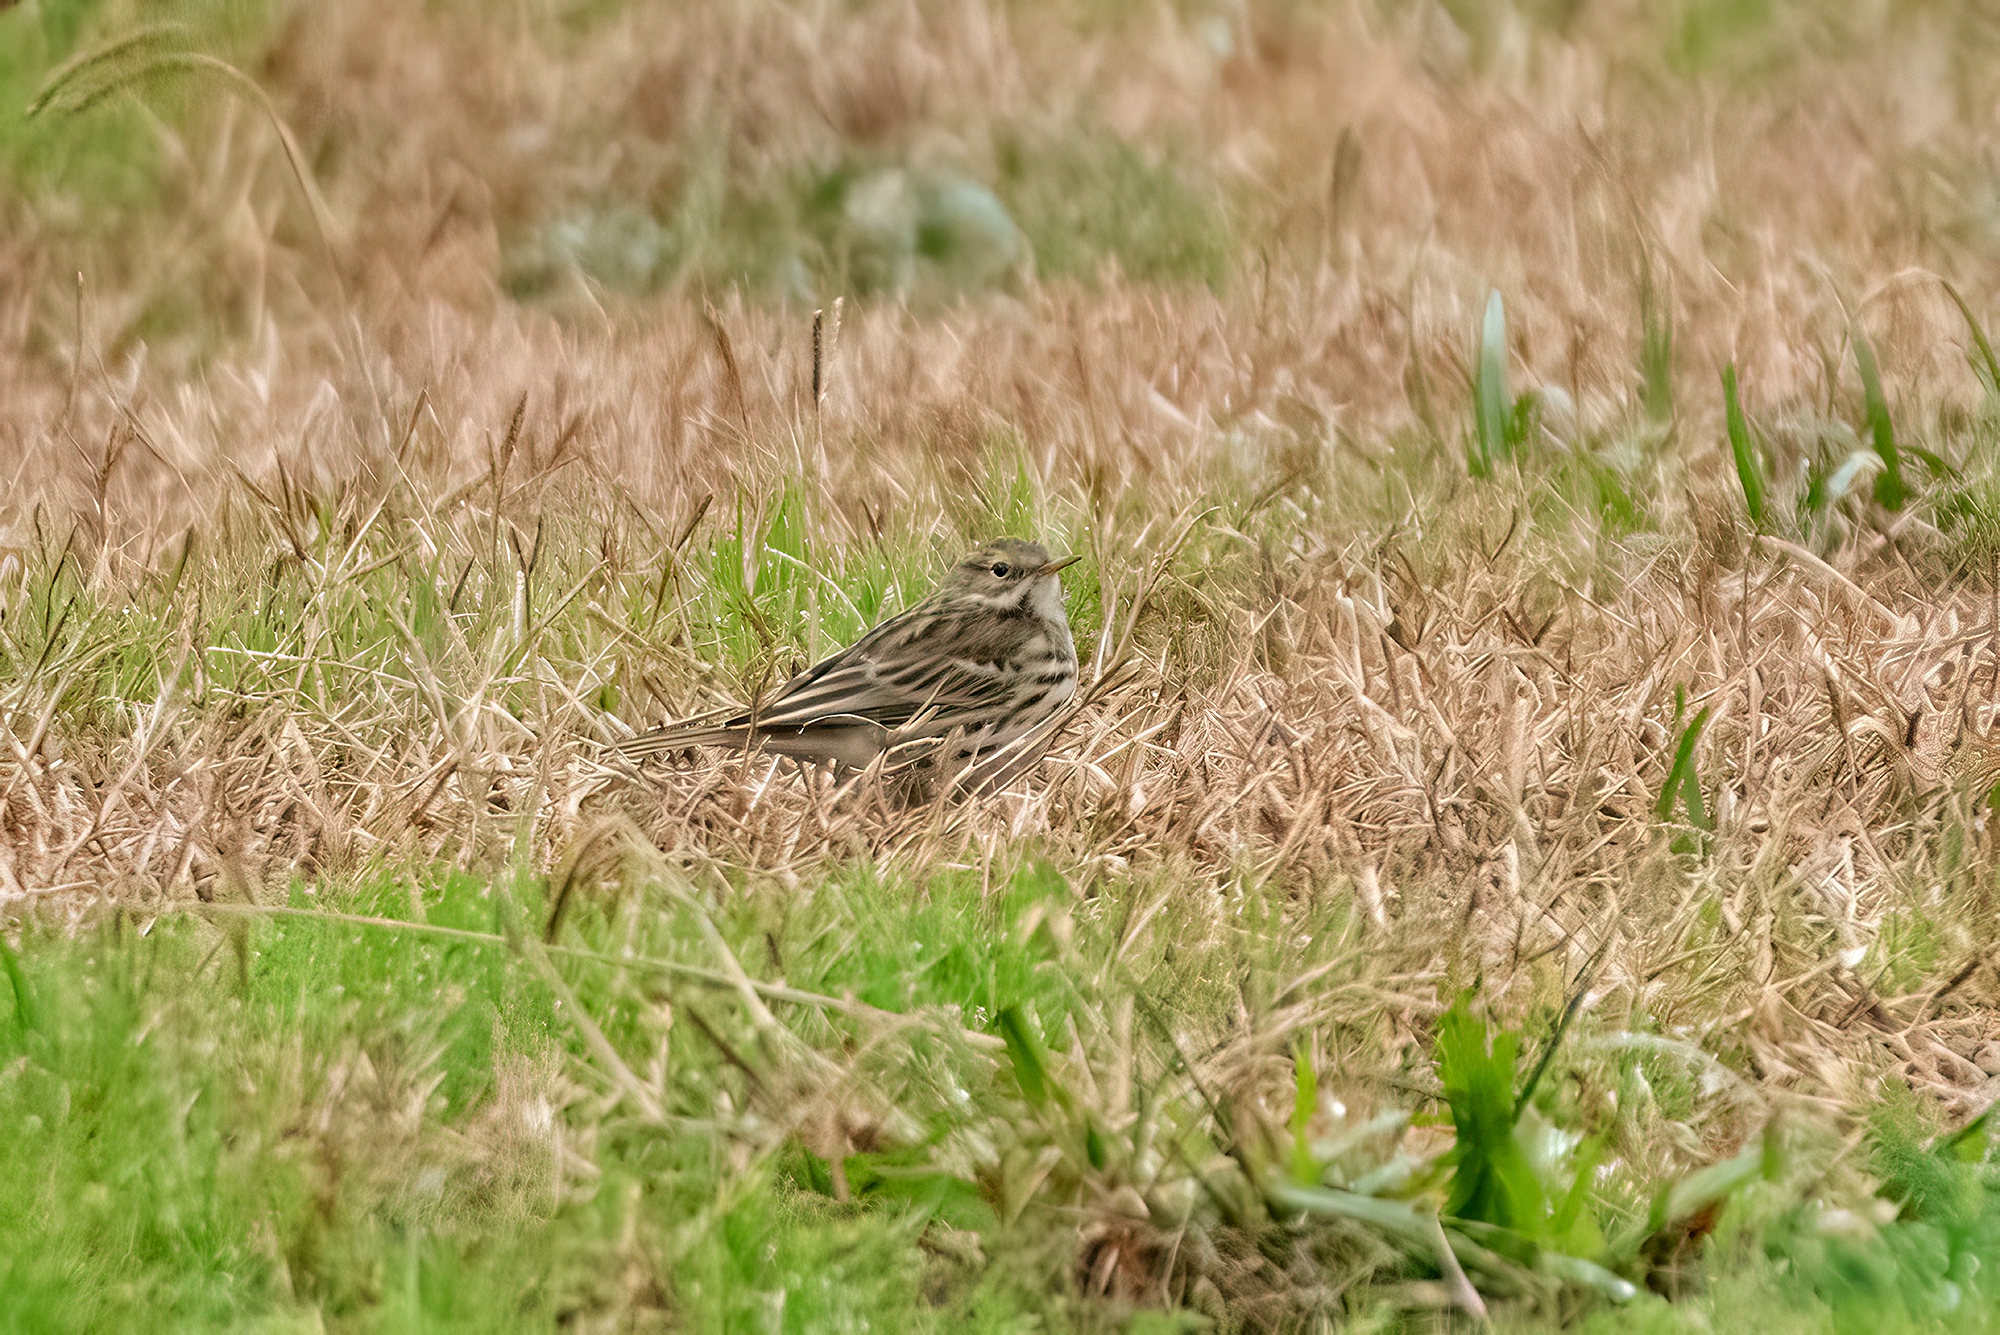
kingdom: Animalia
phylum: Chordata
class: Aves
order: Passeriformes
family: Motacillidae
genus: Anthus
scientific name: Anthus cervinus
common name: Red-throated pipit
